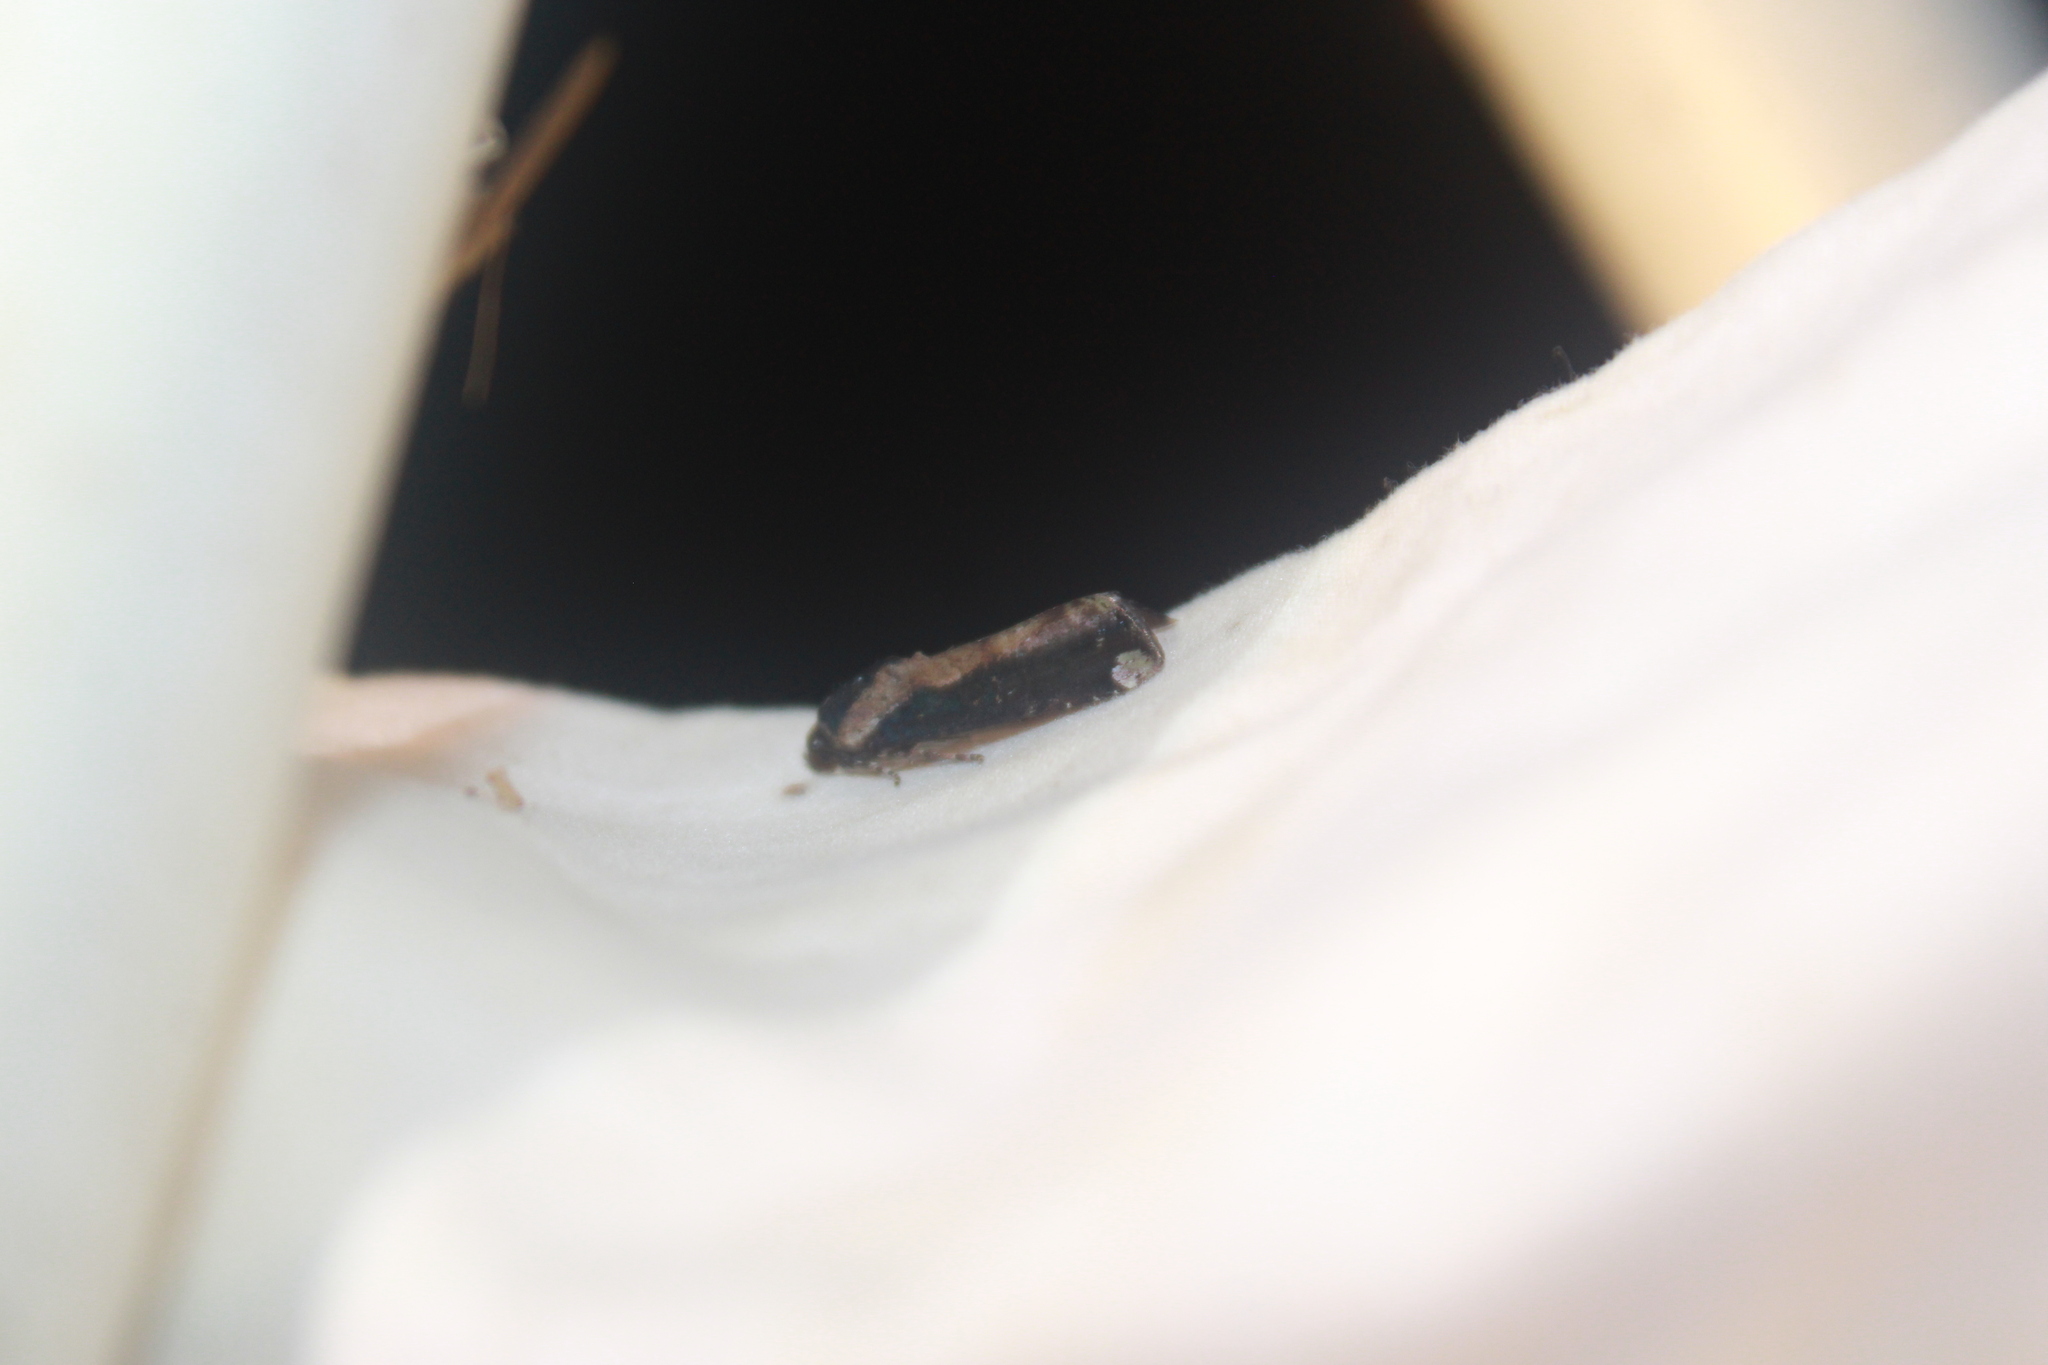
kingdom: Animalia
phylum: Arthropoda
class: Insecta
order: Lepidoptera
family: Noctuidae
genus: Magusa
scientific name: Magusa orbifera
